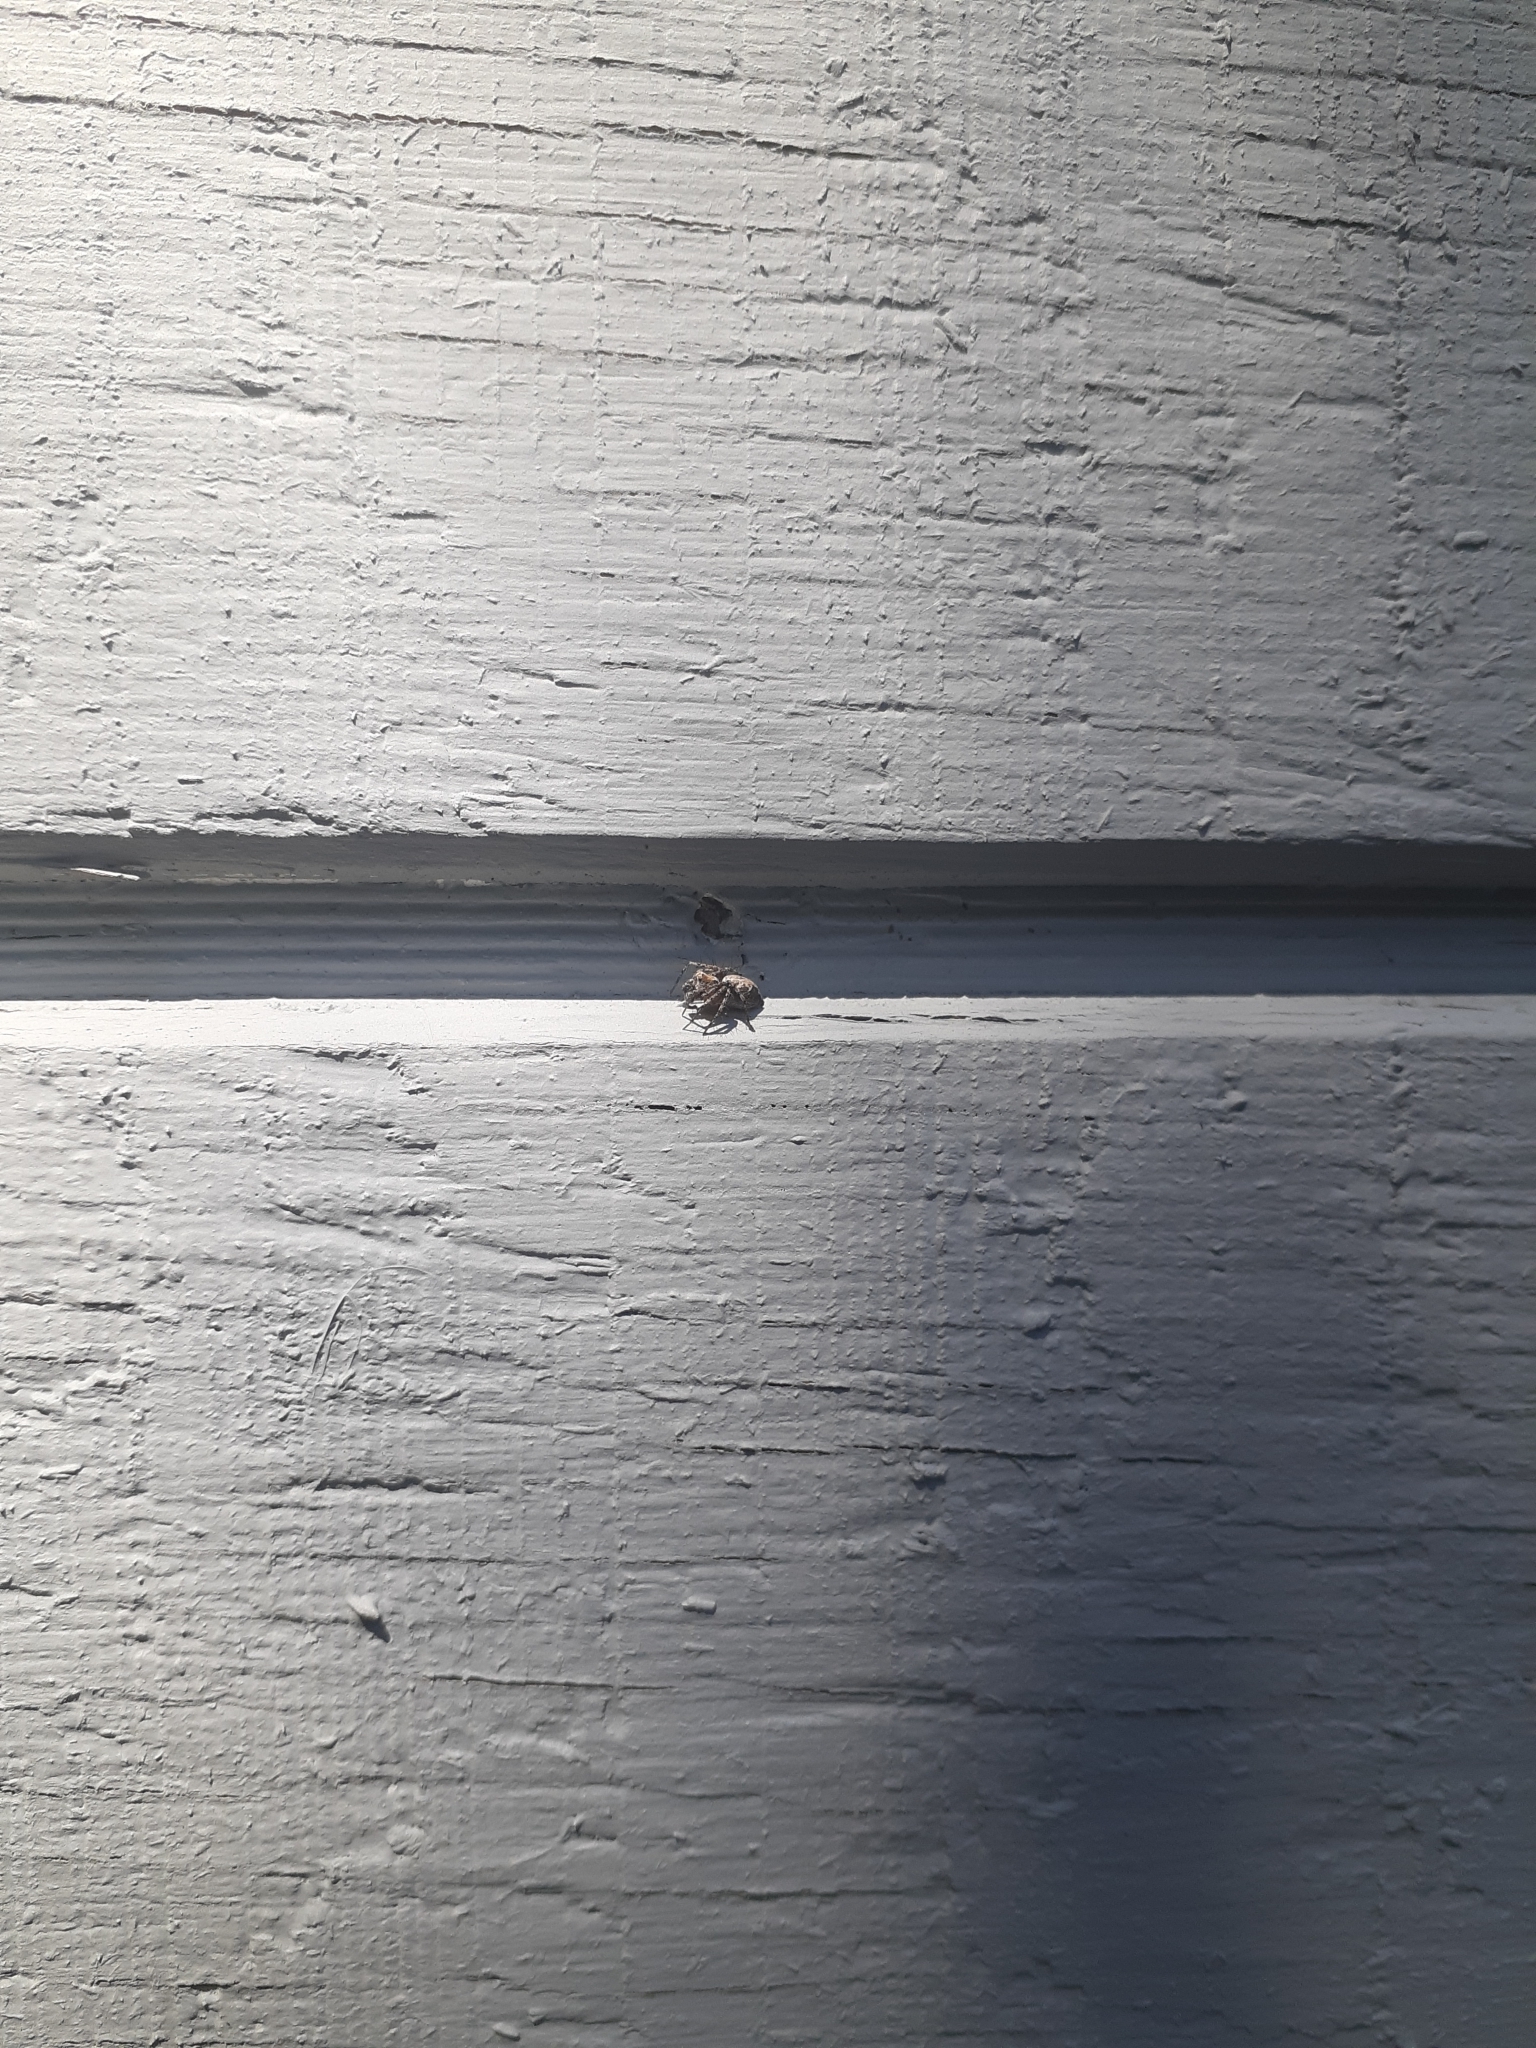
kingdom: Animalia
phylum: Arthropoda
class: Arachnida
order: Araneae
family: Oxyopidae
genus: Oxyopes
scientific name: Oxyopes scalaris
